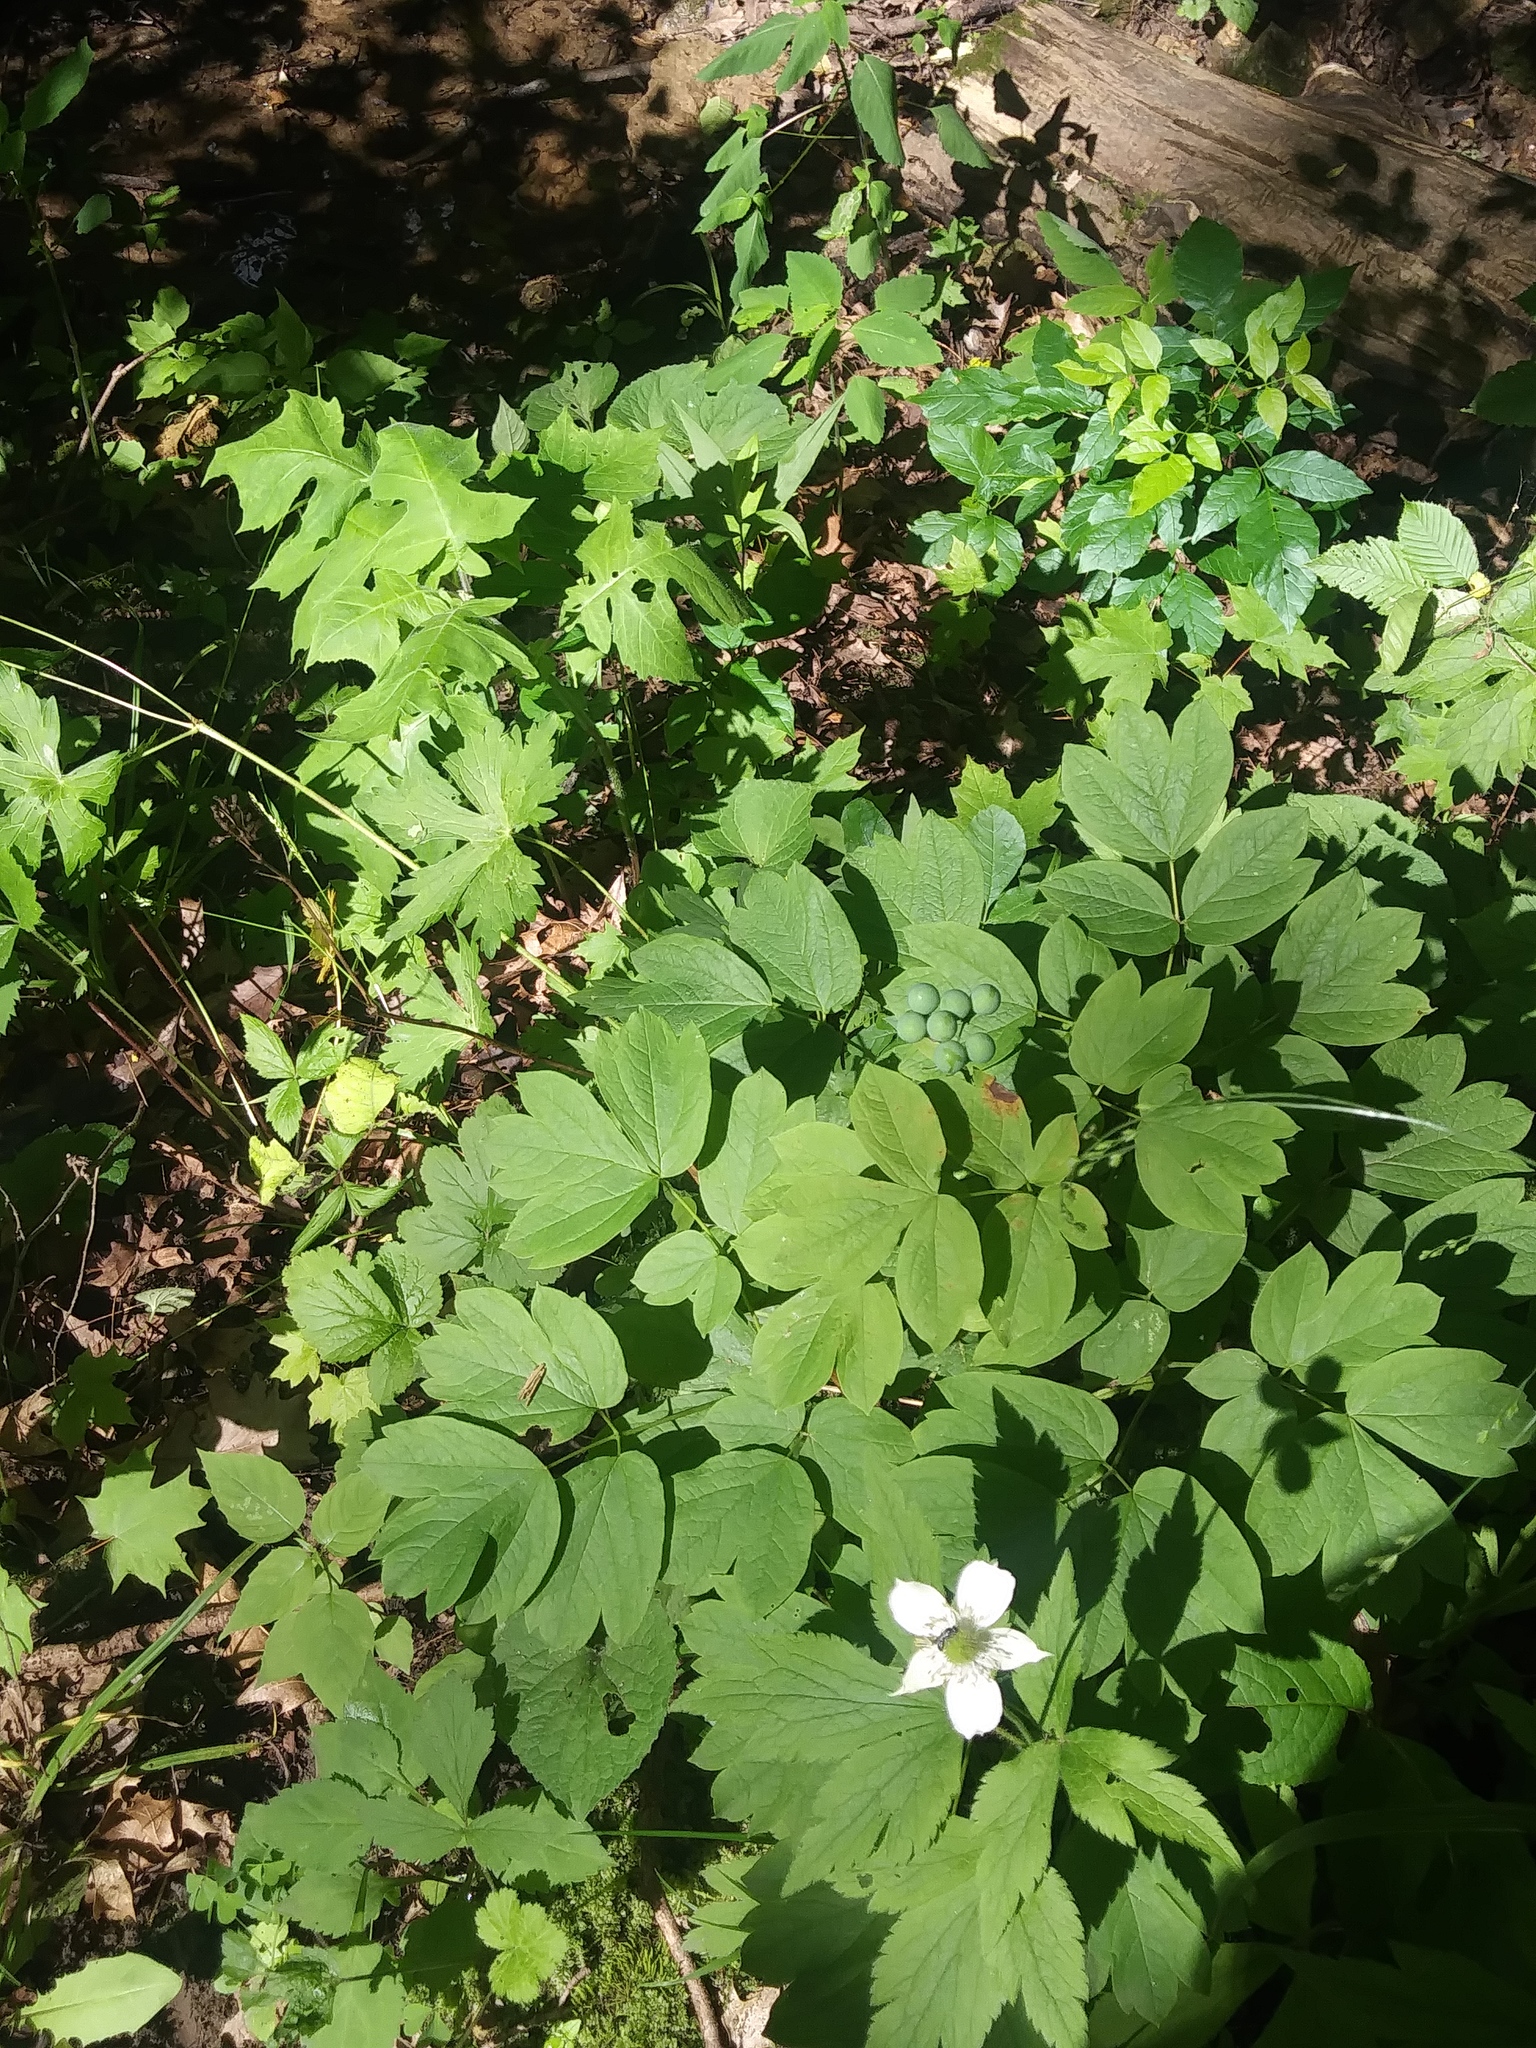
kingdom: Plantae
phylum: Tracheophyta
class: Magnoliopsida
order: Ranunculales
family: Berberidaceae
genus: Caulophyllum
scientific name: Caulophyllum thalictroides
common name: Blue cohosh
